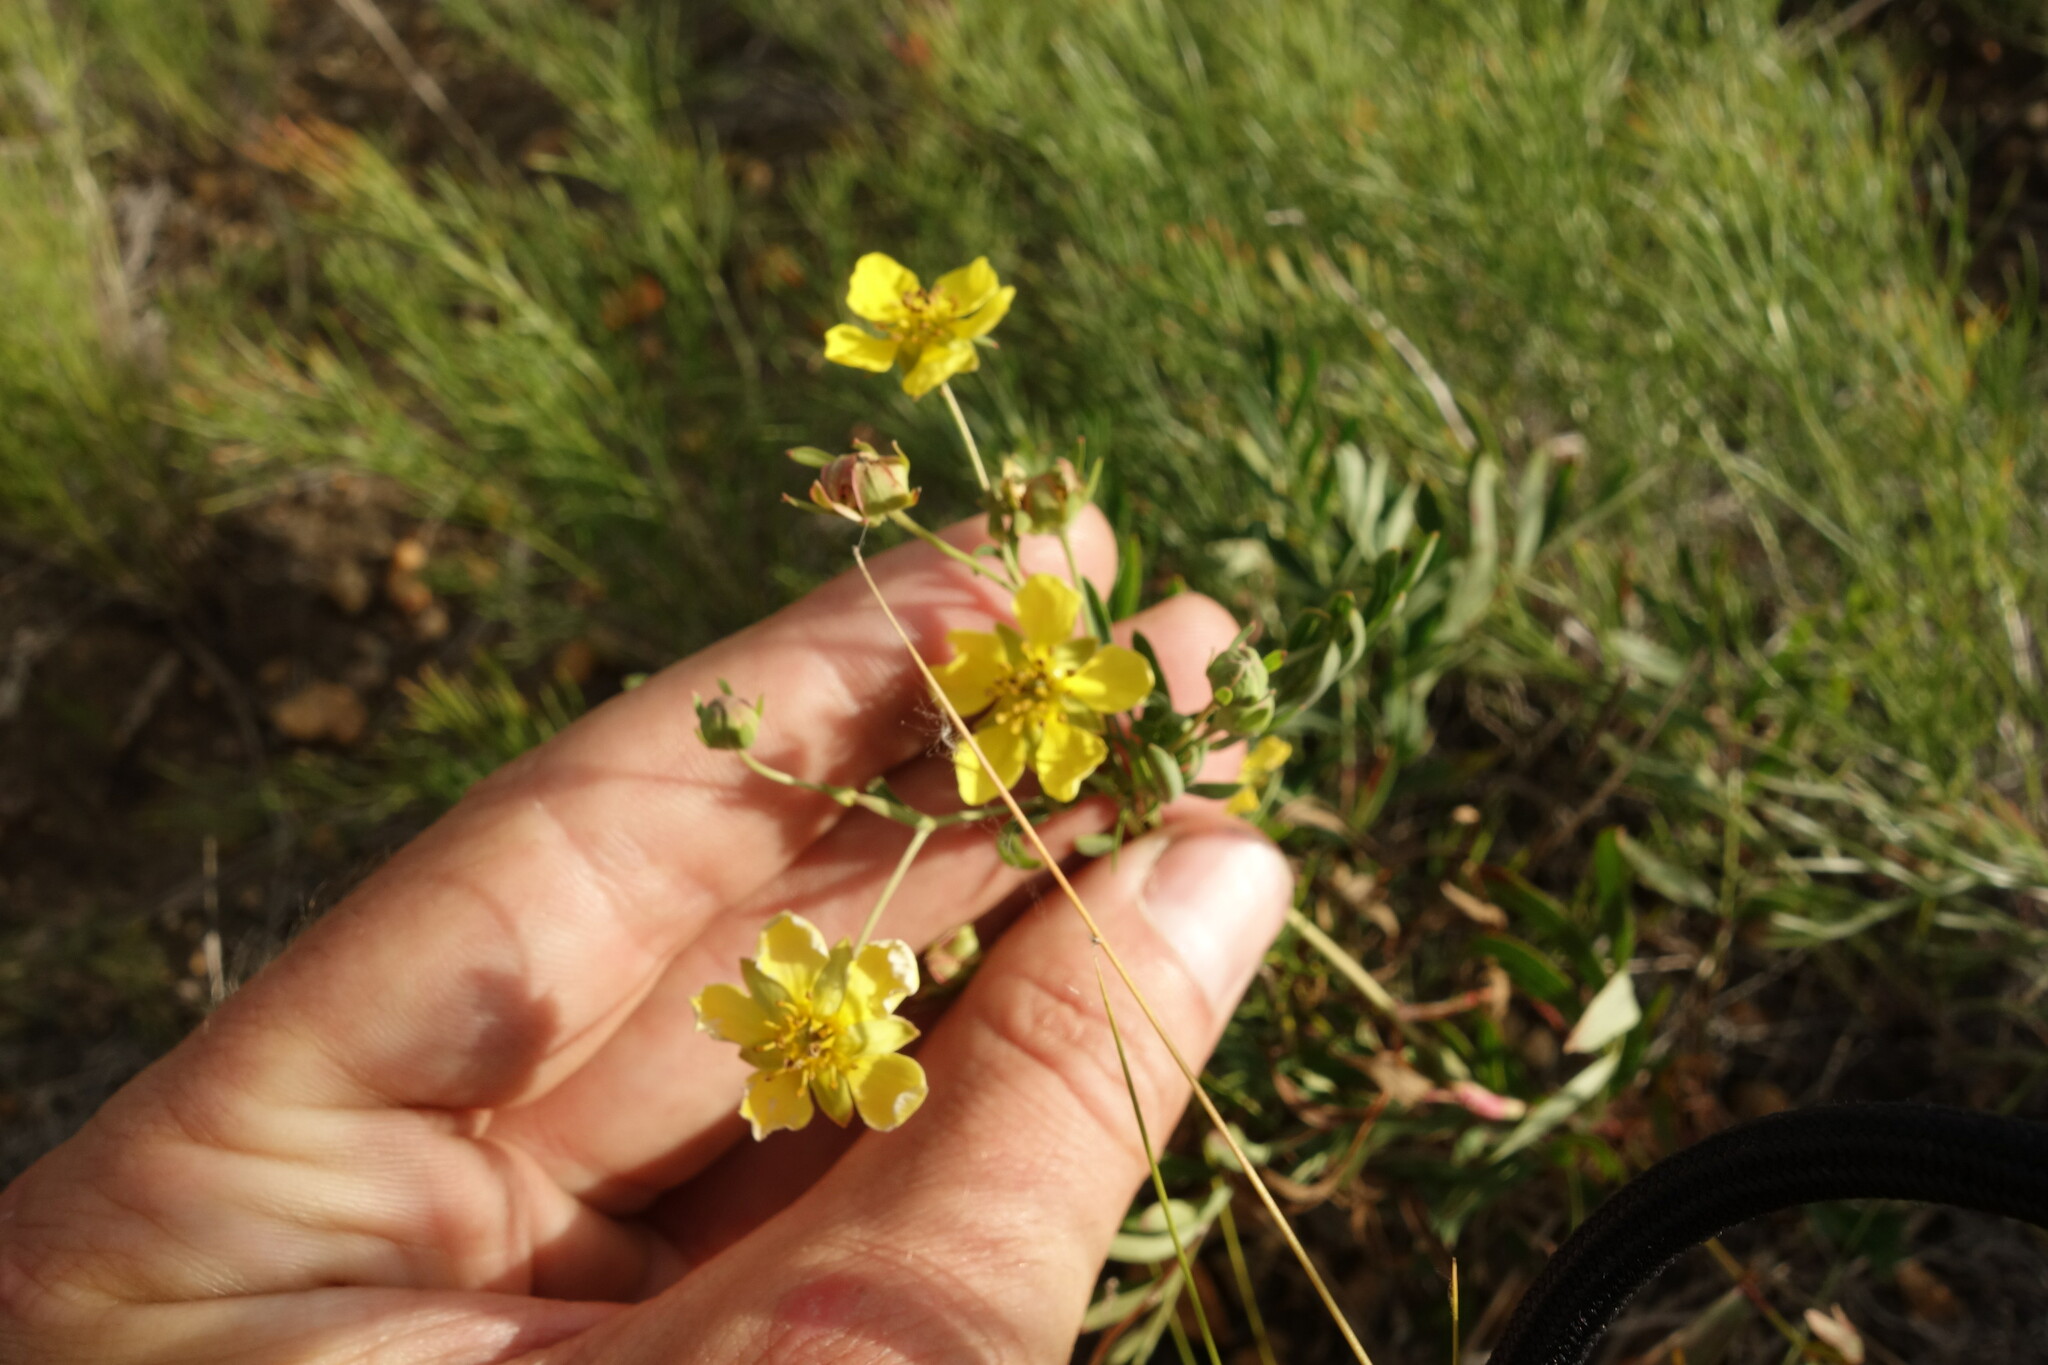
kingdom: Plantae
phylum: Tracheophyta
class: Magnoliopsida
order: Rosales
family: Rosaceae
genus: Sibbaldianthe
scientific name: Sibbaldianthe orientalis
